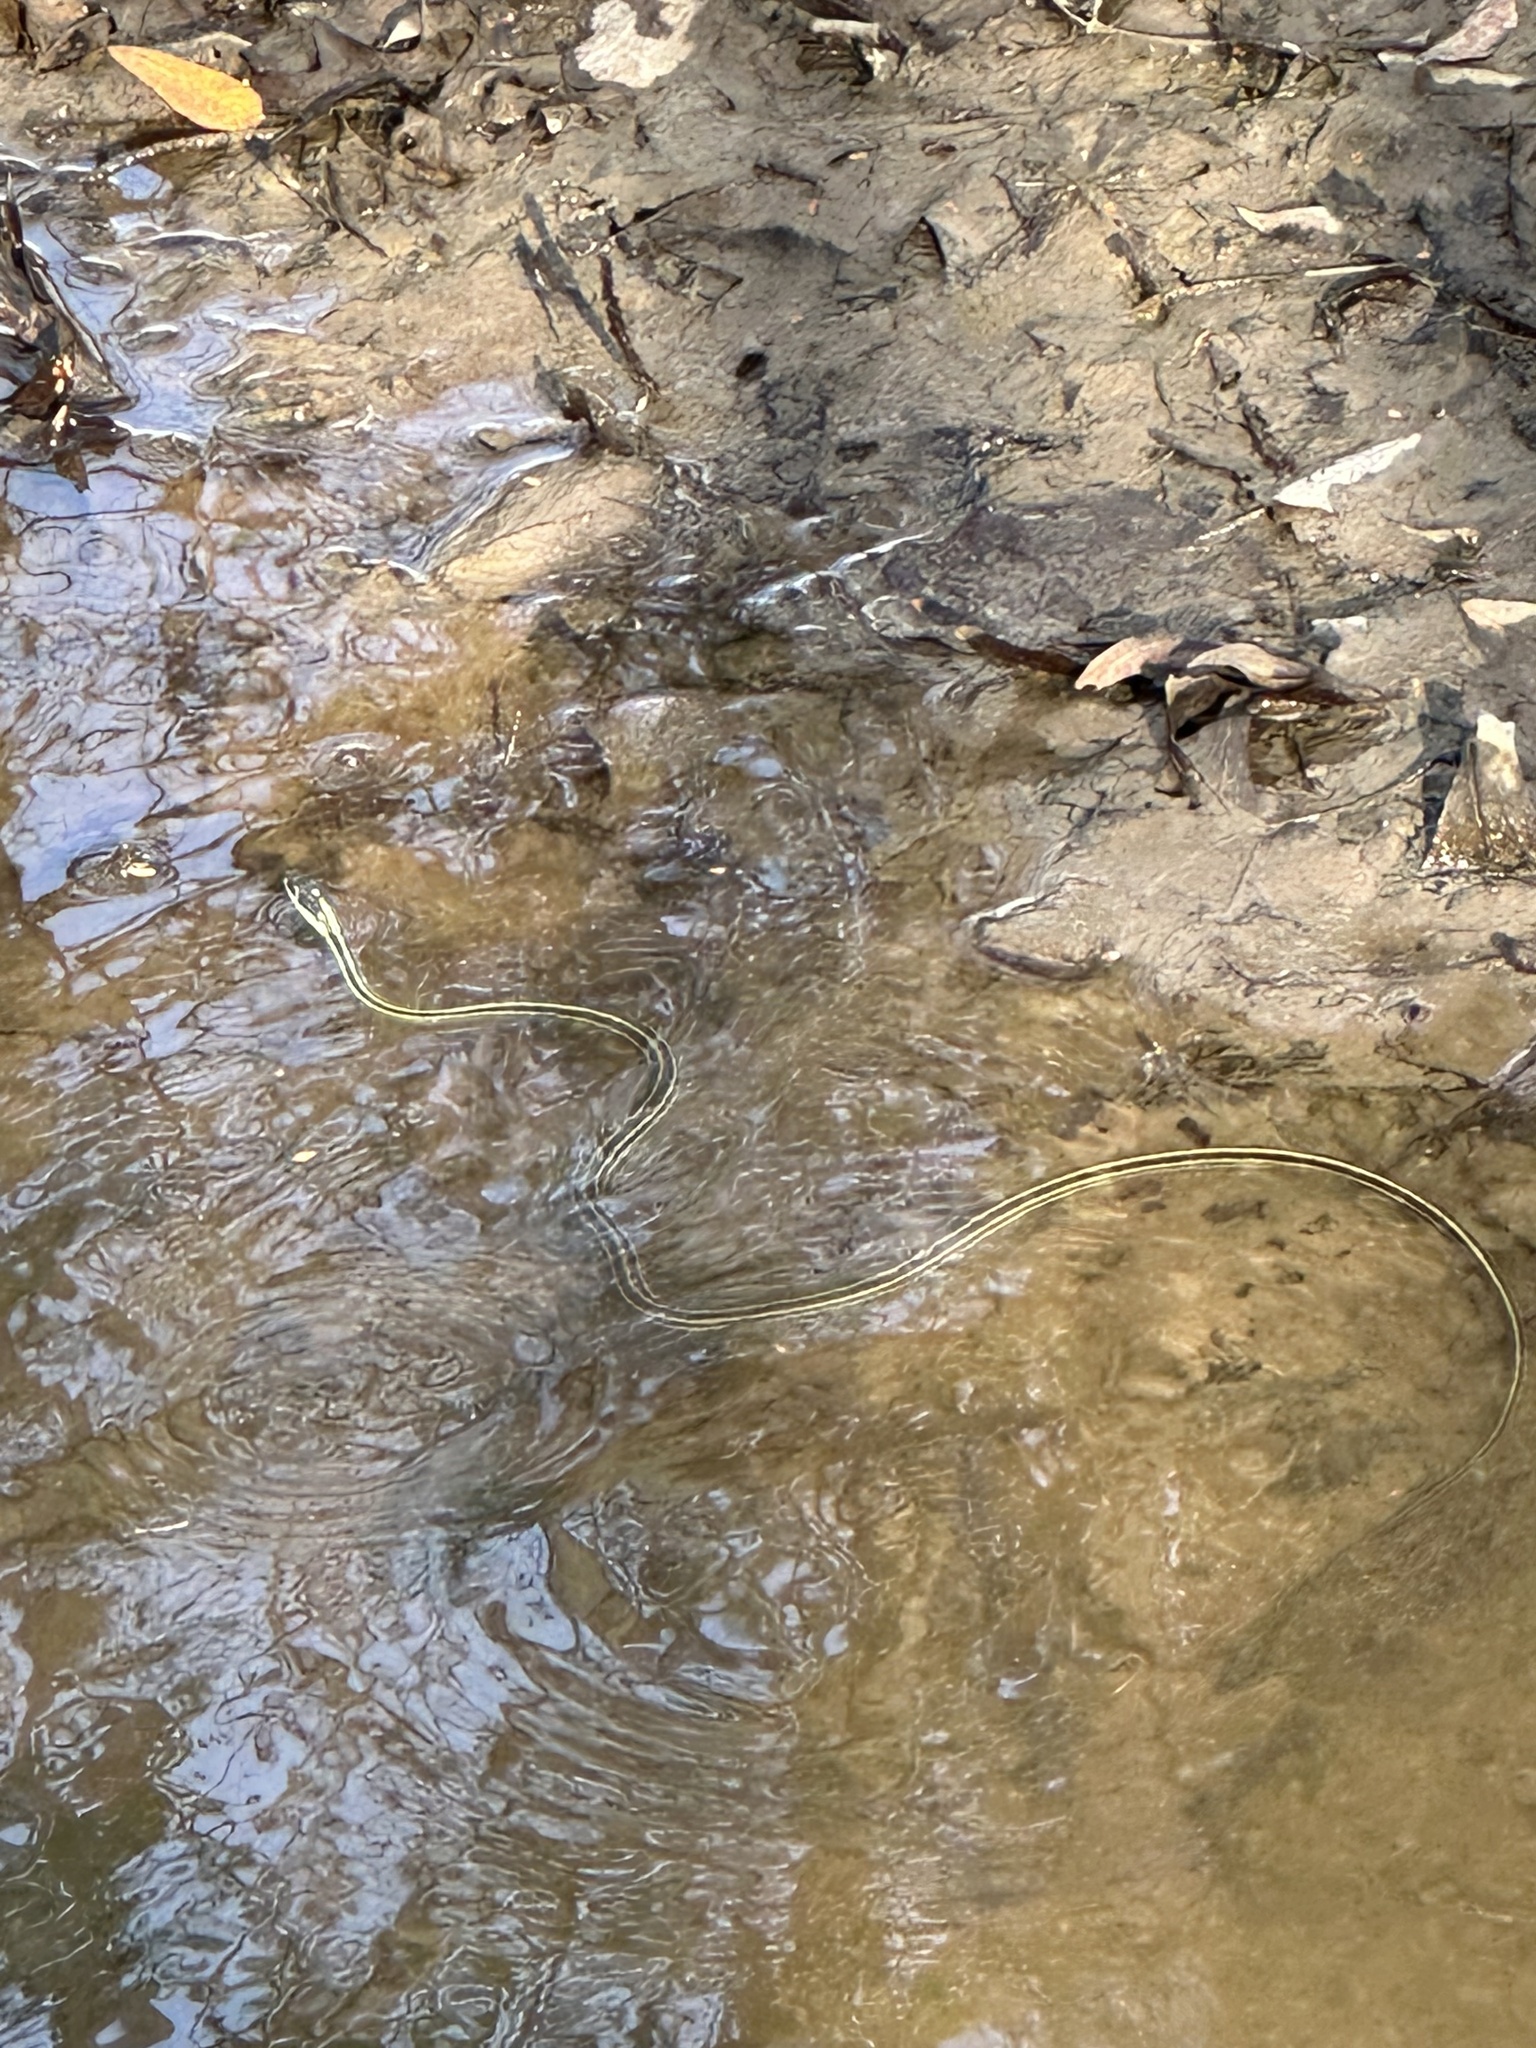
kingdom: Animalia
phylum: Chordata
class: Squamata
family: Colubridae
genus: Thamnophis
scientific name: Thamnophis proximus
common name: Western ribbon snake
